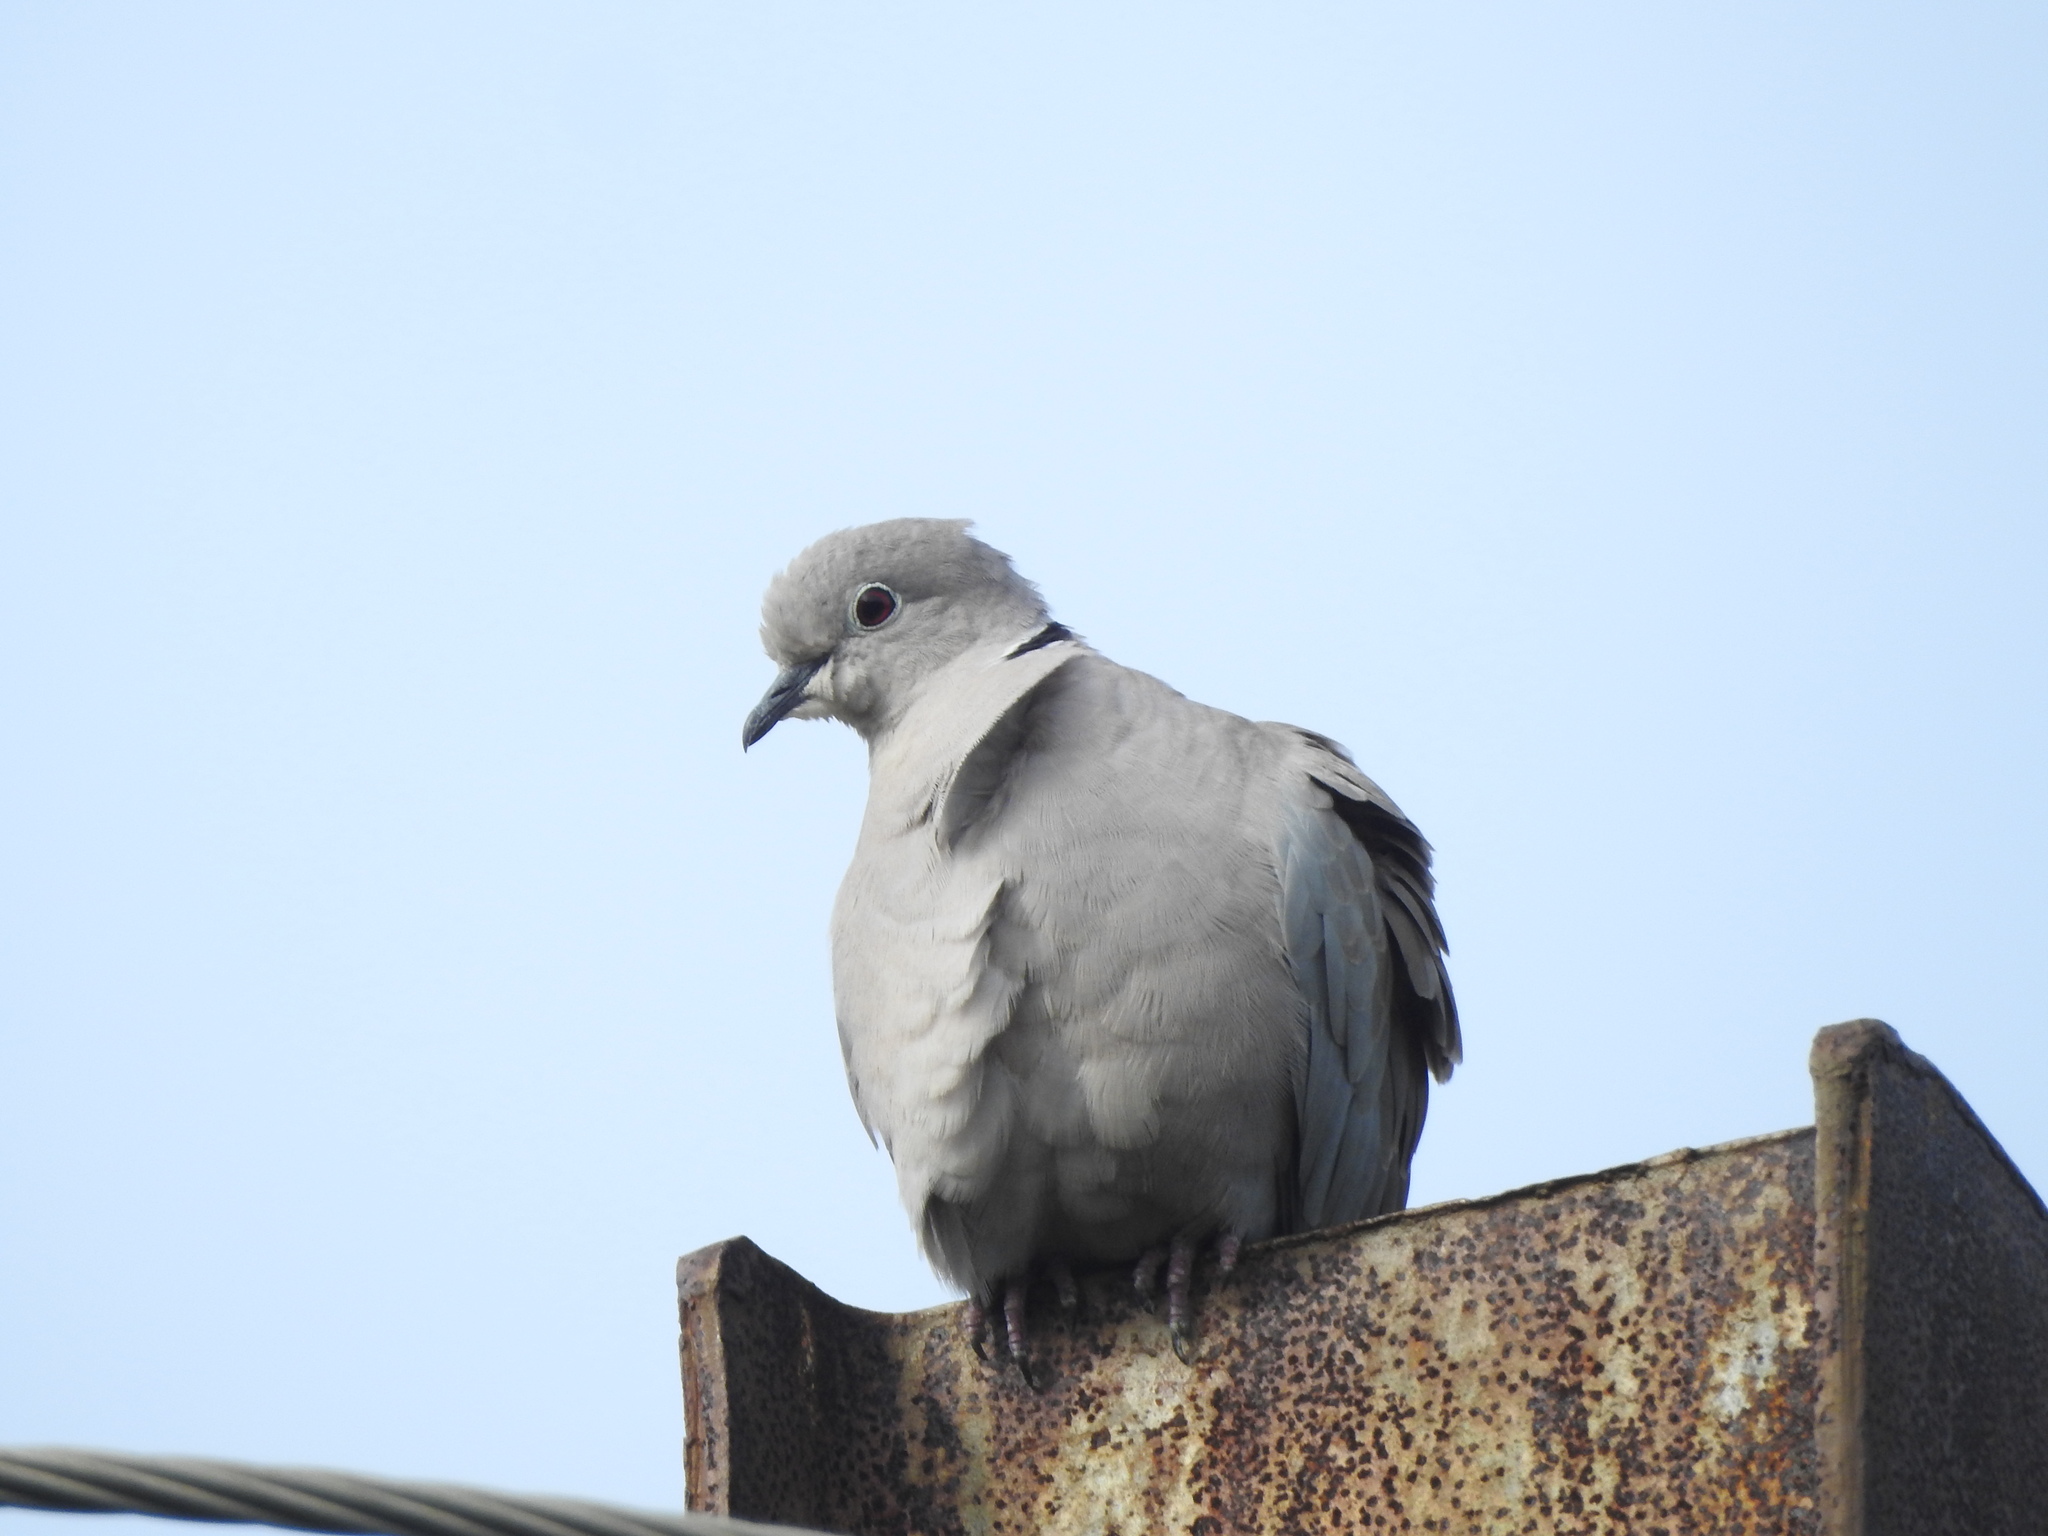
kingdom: Animalia
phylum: Chordata
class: Aves
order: Columbiformes
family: Columbidae
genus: Streptopelia
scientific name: Streptopelia decaocto
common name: Eurasian collared dove
